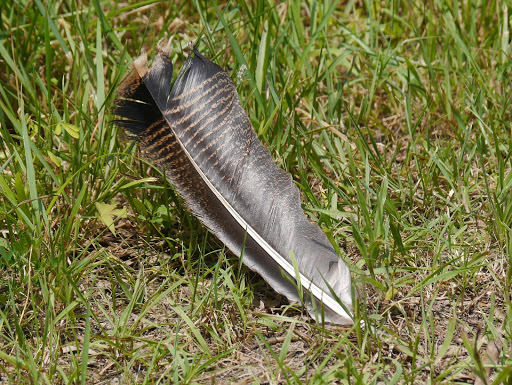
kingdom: Animalia
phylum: Chordata
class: Aves
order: Galliformes
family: Phasianidae
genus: Meleagris
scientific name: Meleagris gallopavo
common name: Wild turkey
